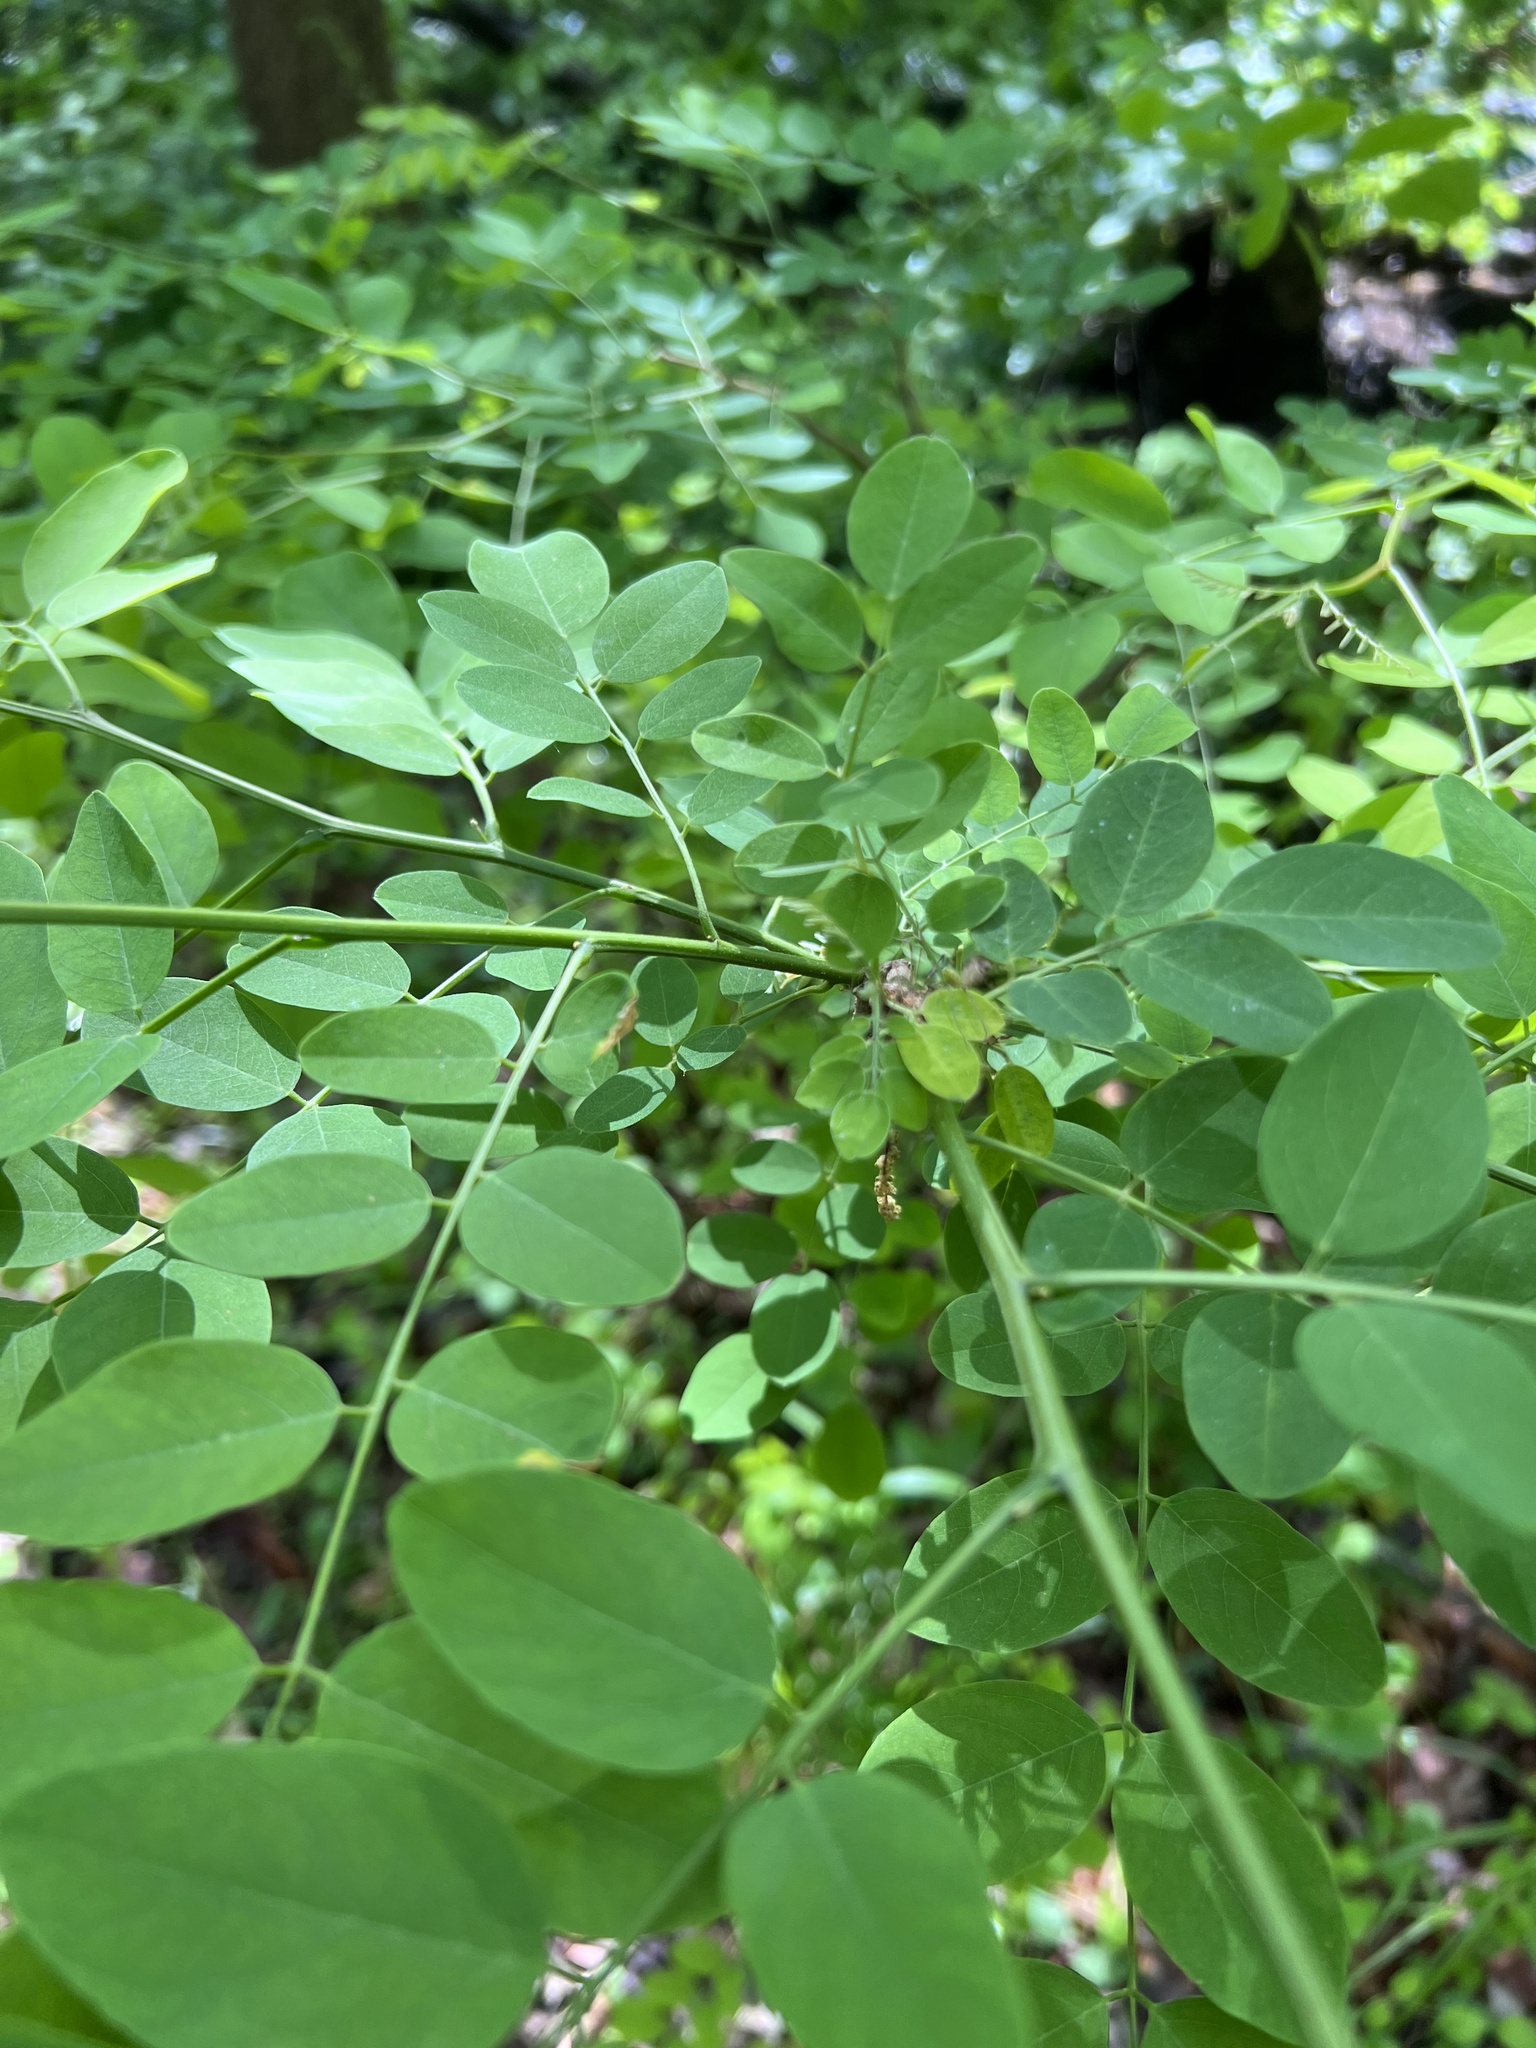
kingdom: Plantae
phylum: Tracheophyta
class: Magnoliopsida
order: Fabales
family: Fabaceae
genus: Robinia
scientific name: Robinia pseudoacacia
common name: Black locust
